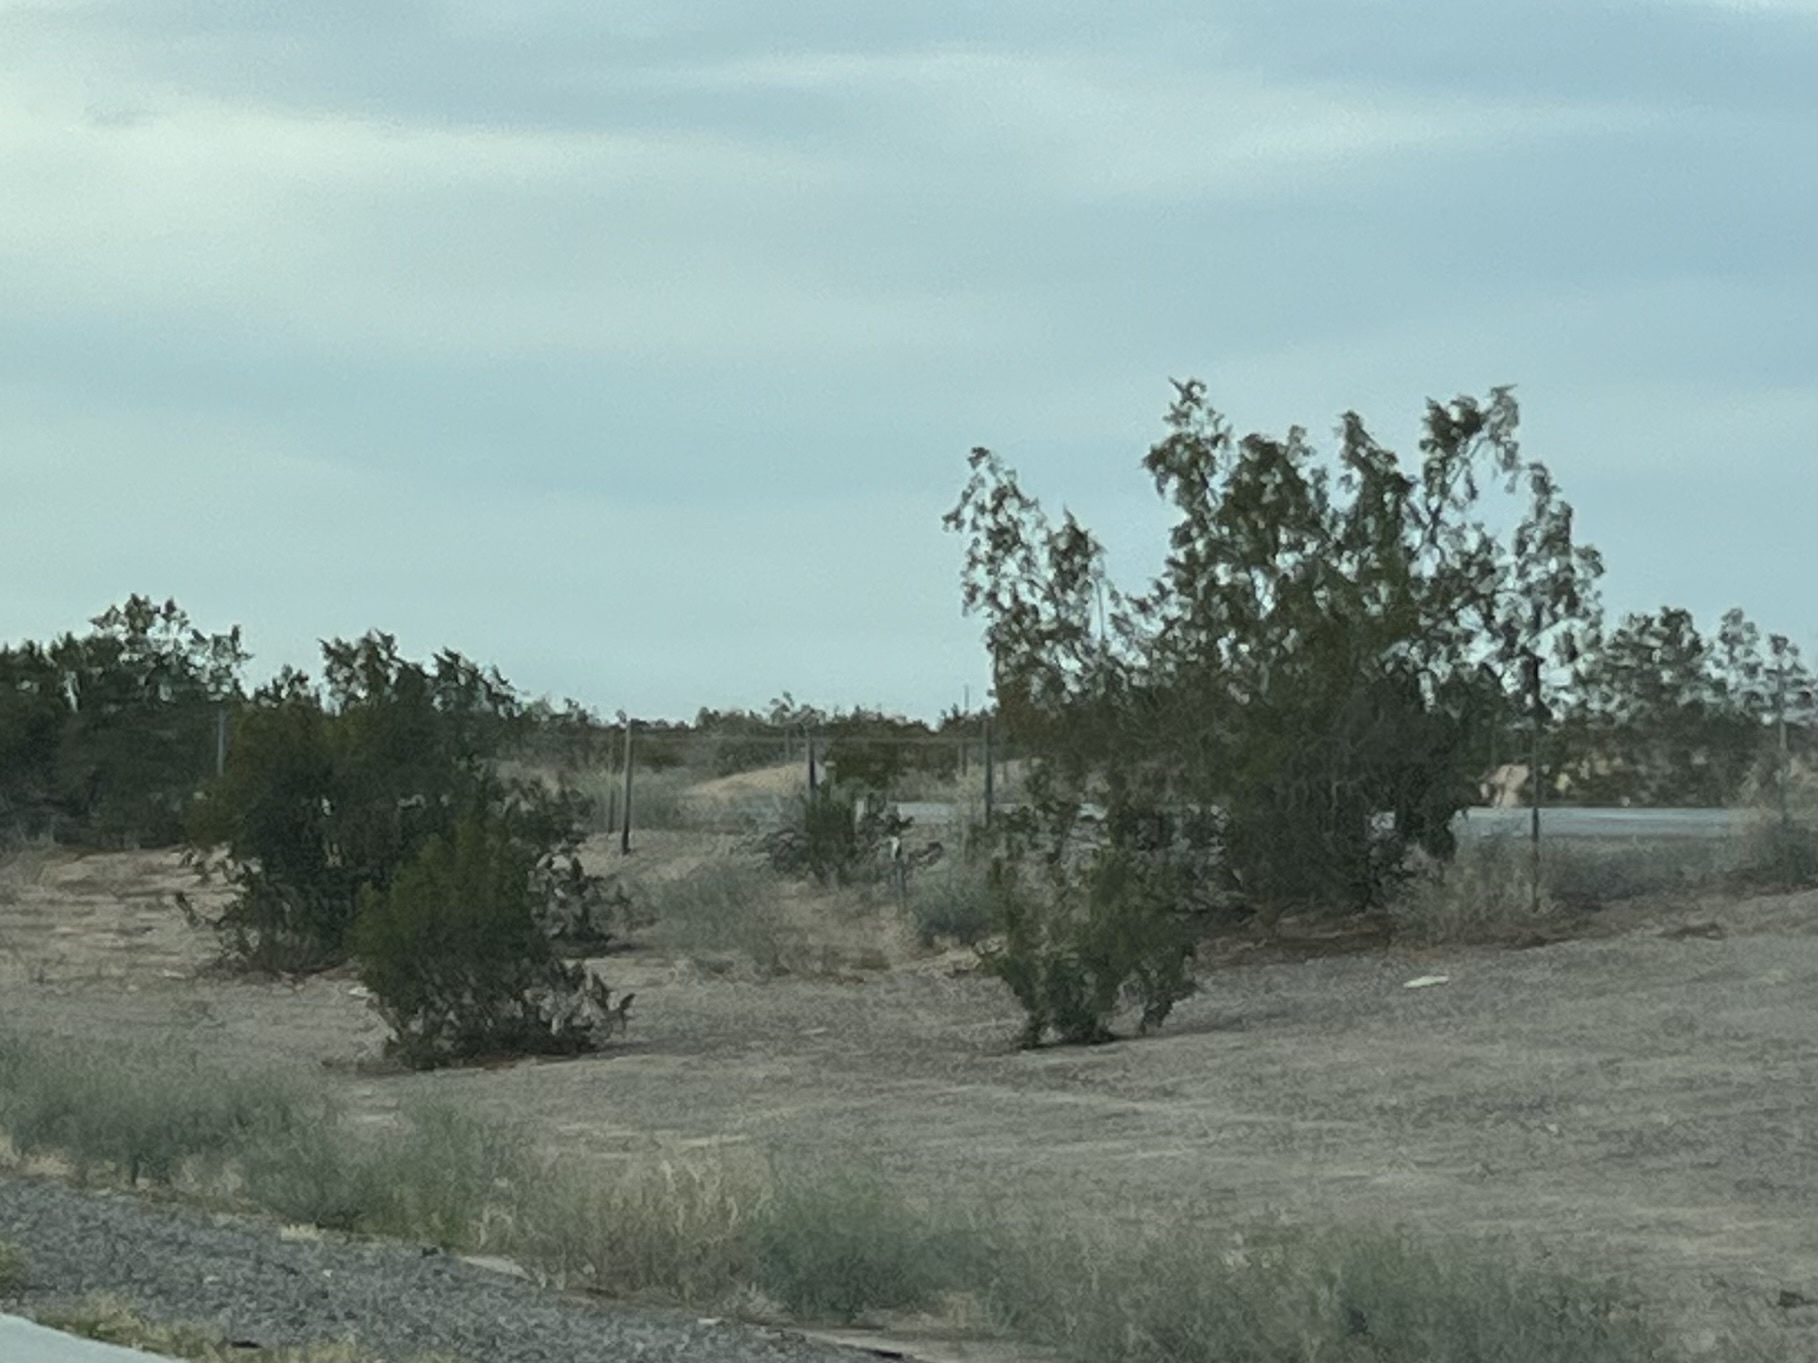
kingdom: Plantae
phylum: Tracheophyta
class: Magnoliopsida
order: Zygophyllales
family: Zygophyllaceae
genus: Larrea
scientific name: Larrea tridentata
